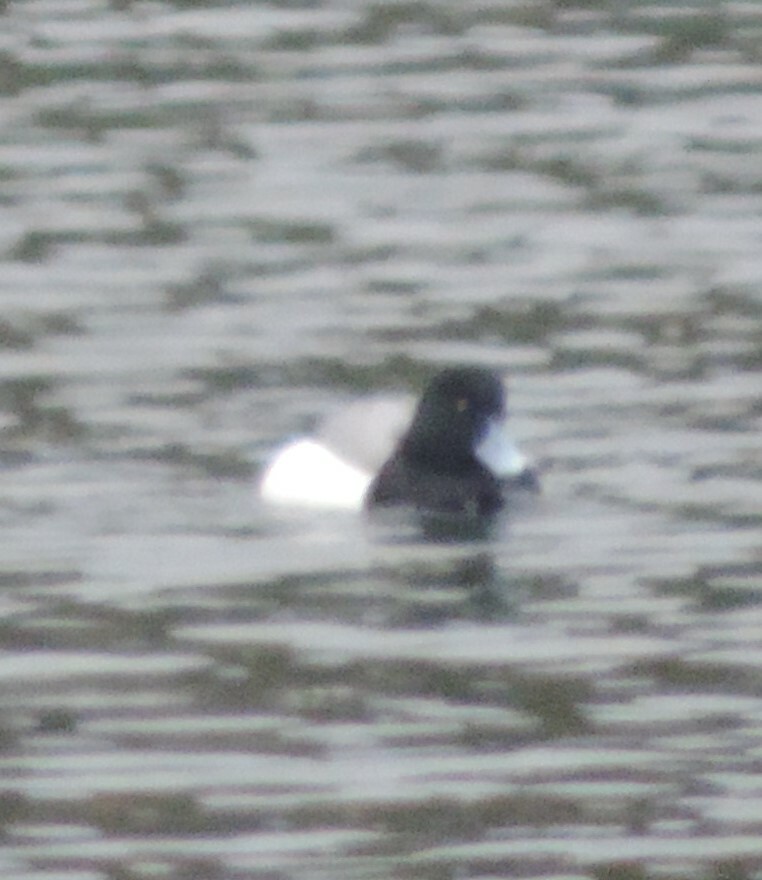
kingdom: Animalia
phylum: Chordata
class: Aves
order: Anseriformes
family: Anatidae
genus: Aythya
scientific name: Aythya marila
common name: Greater scaup
